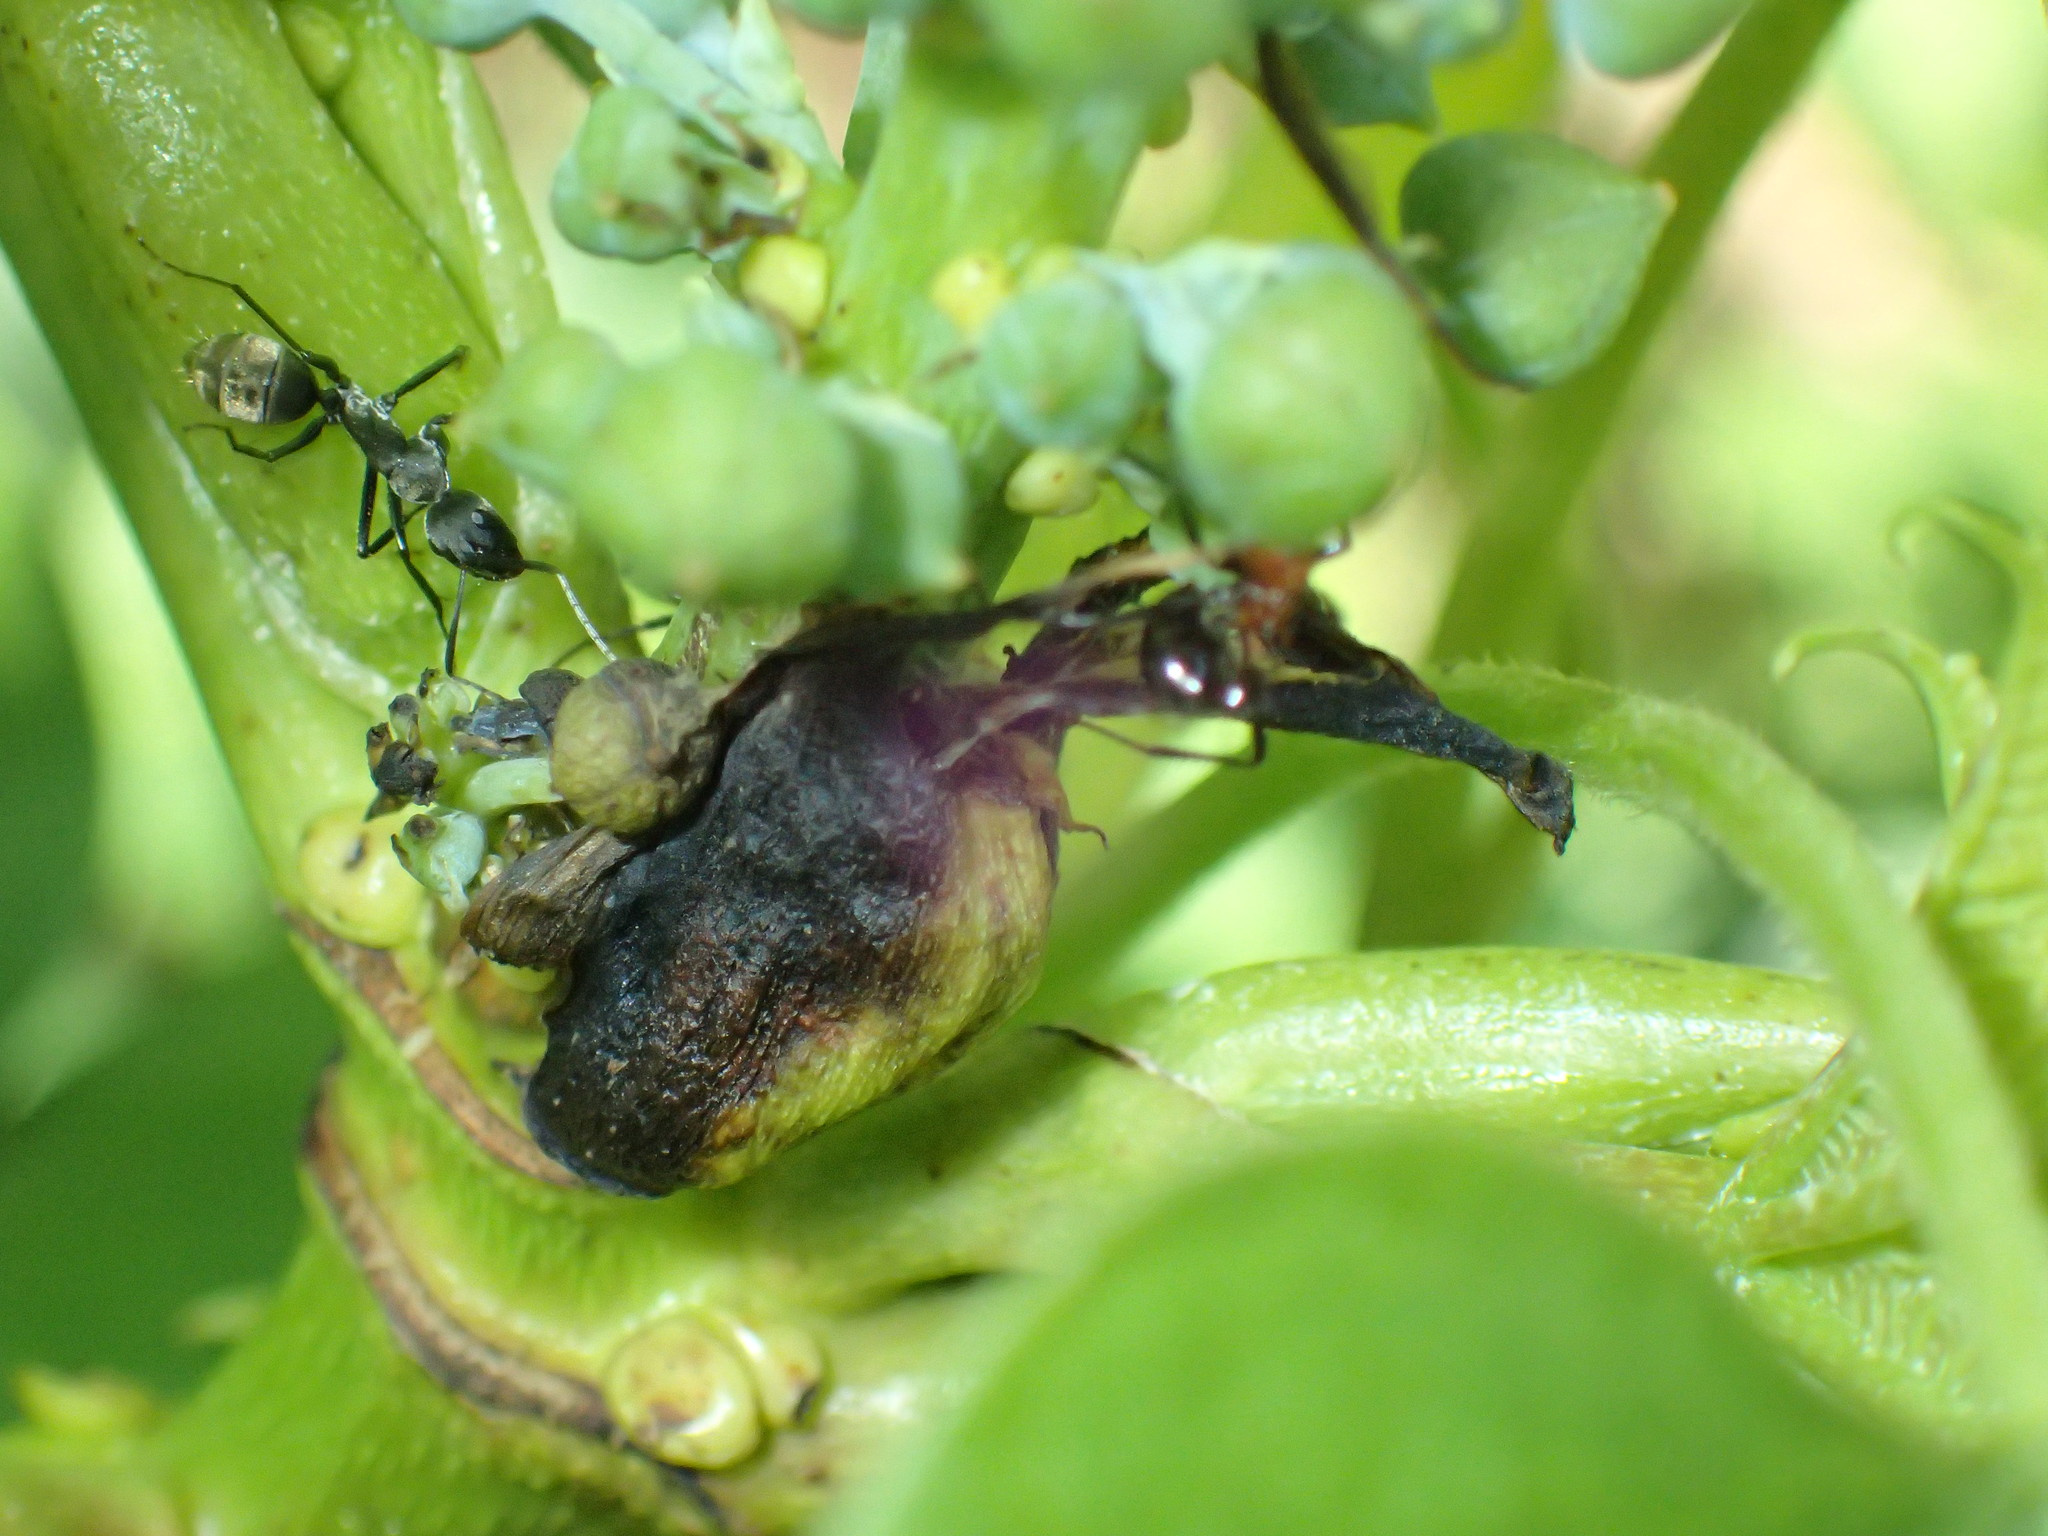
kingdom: Animalia
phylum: Arthropoda
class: Insecta
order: Hymenoptera
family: Formicidae
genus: Camponotus
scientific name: Camponotus cinctellus
